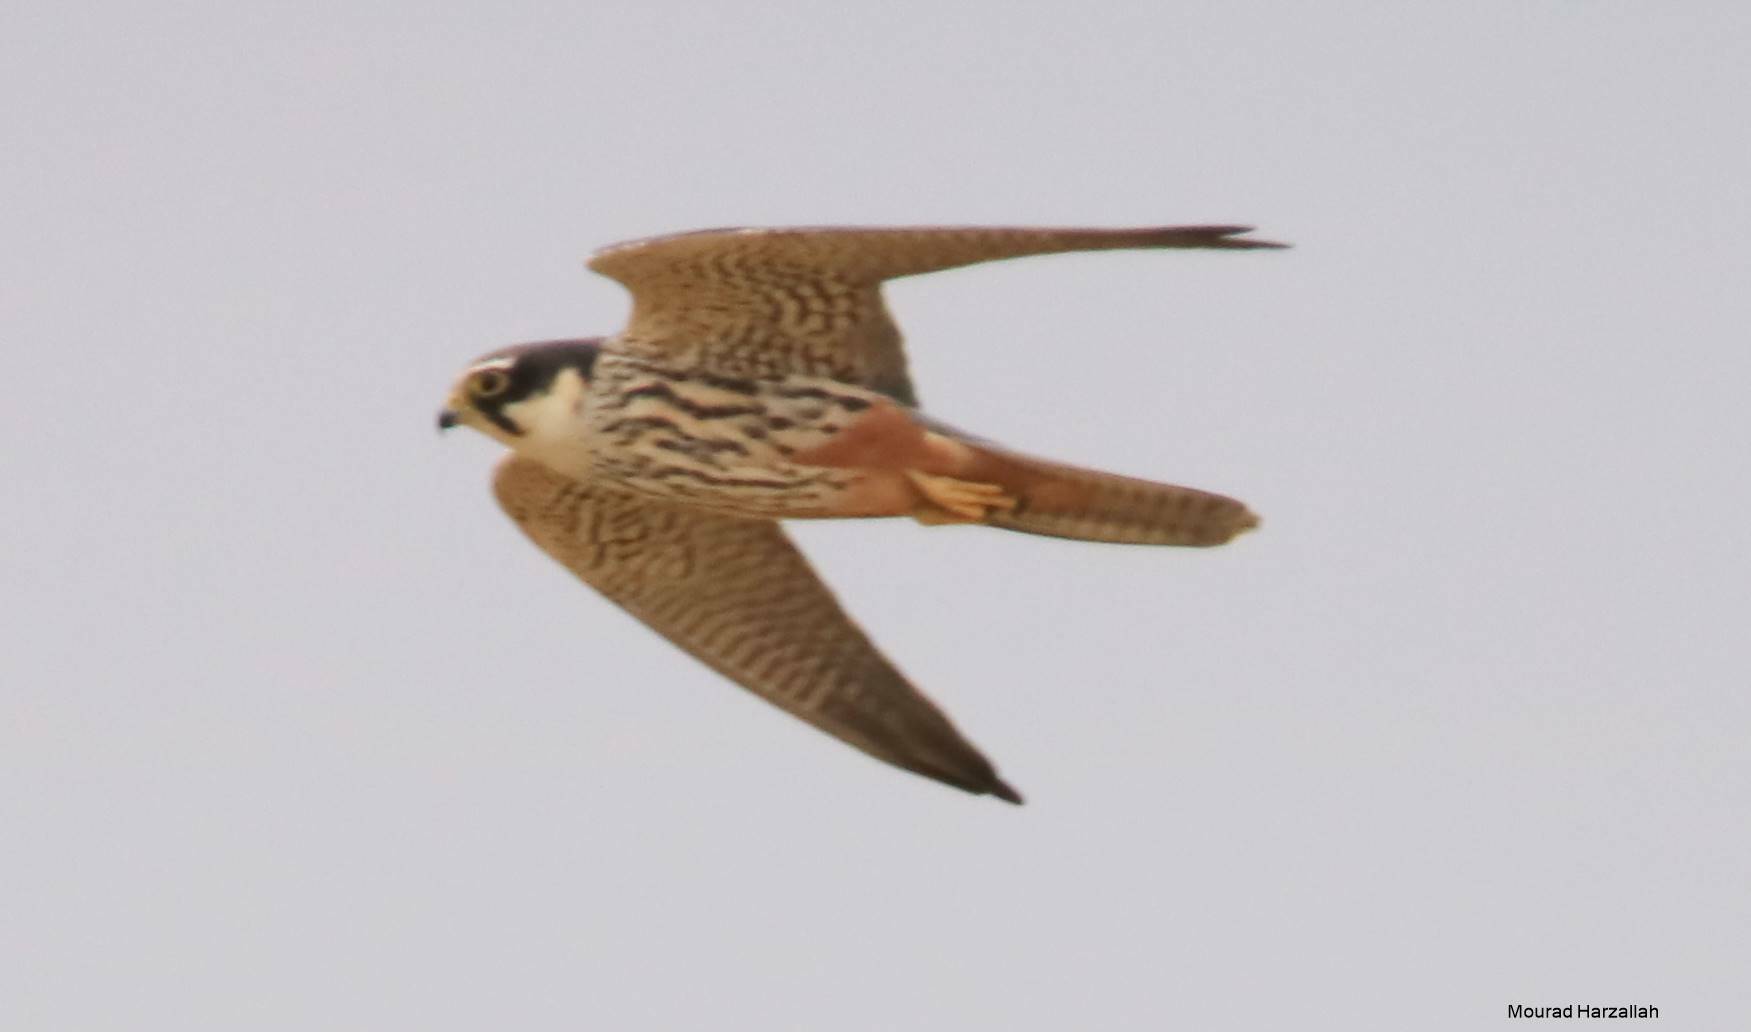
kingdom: Animalia
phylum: Chordata
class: Aves
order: Falconiformes
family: Falconidae
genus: Falco
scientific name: Falco subbuteo
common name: Eurasian hobby
